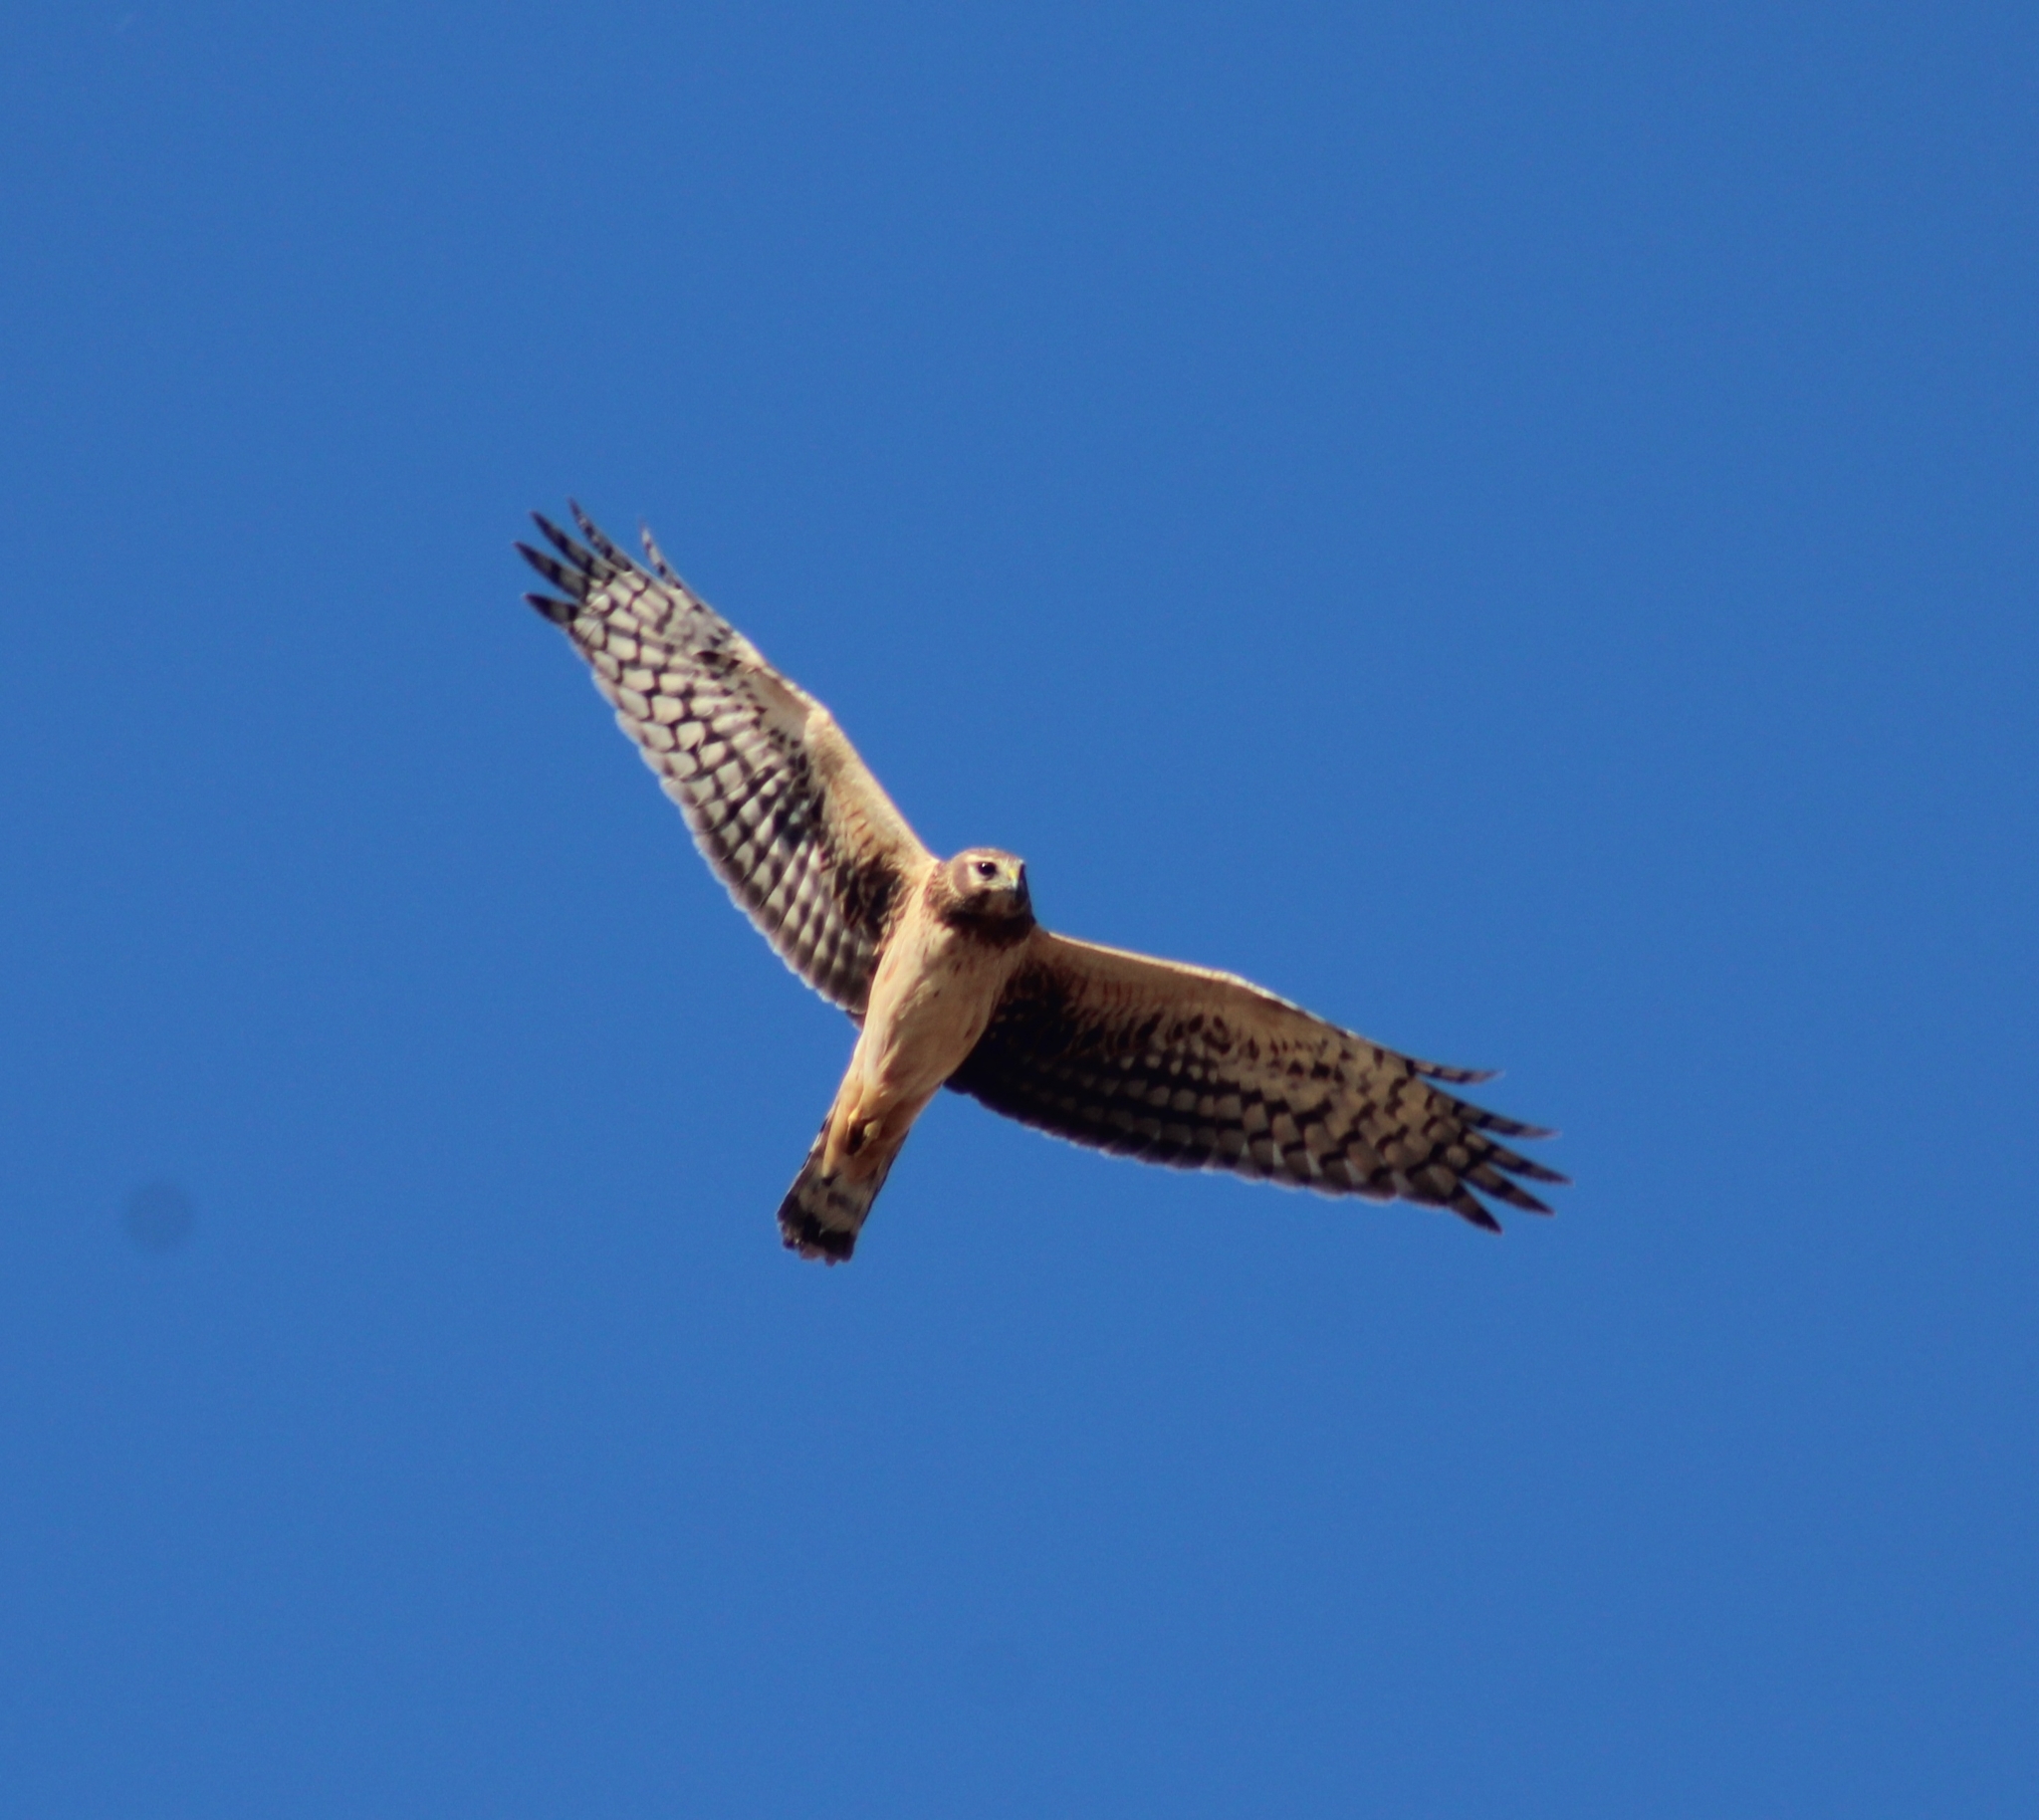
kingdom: Animalia
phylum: Chordata
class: Aves
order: Accipitriformes
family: Accipitridae
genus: Circus
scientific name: Circus cyaneus
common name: Hen harrier
